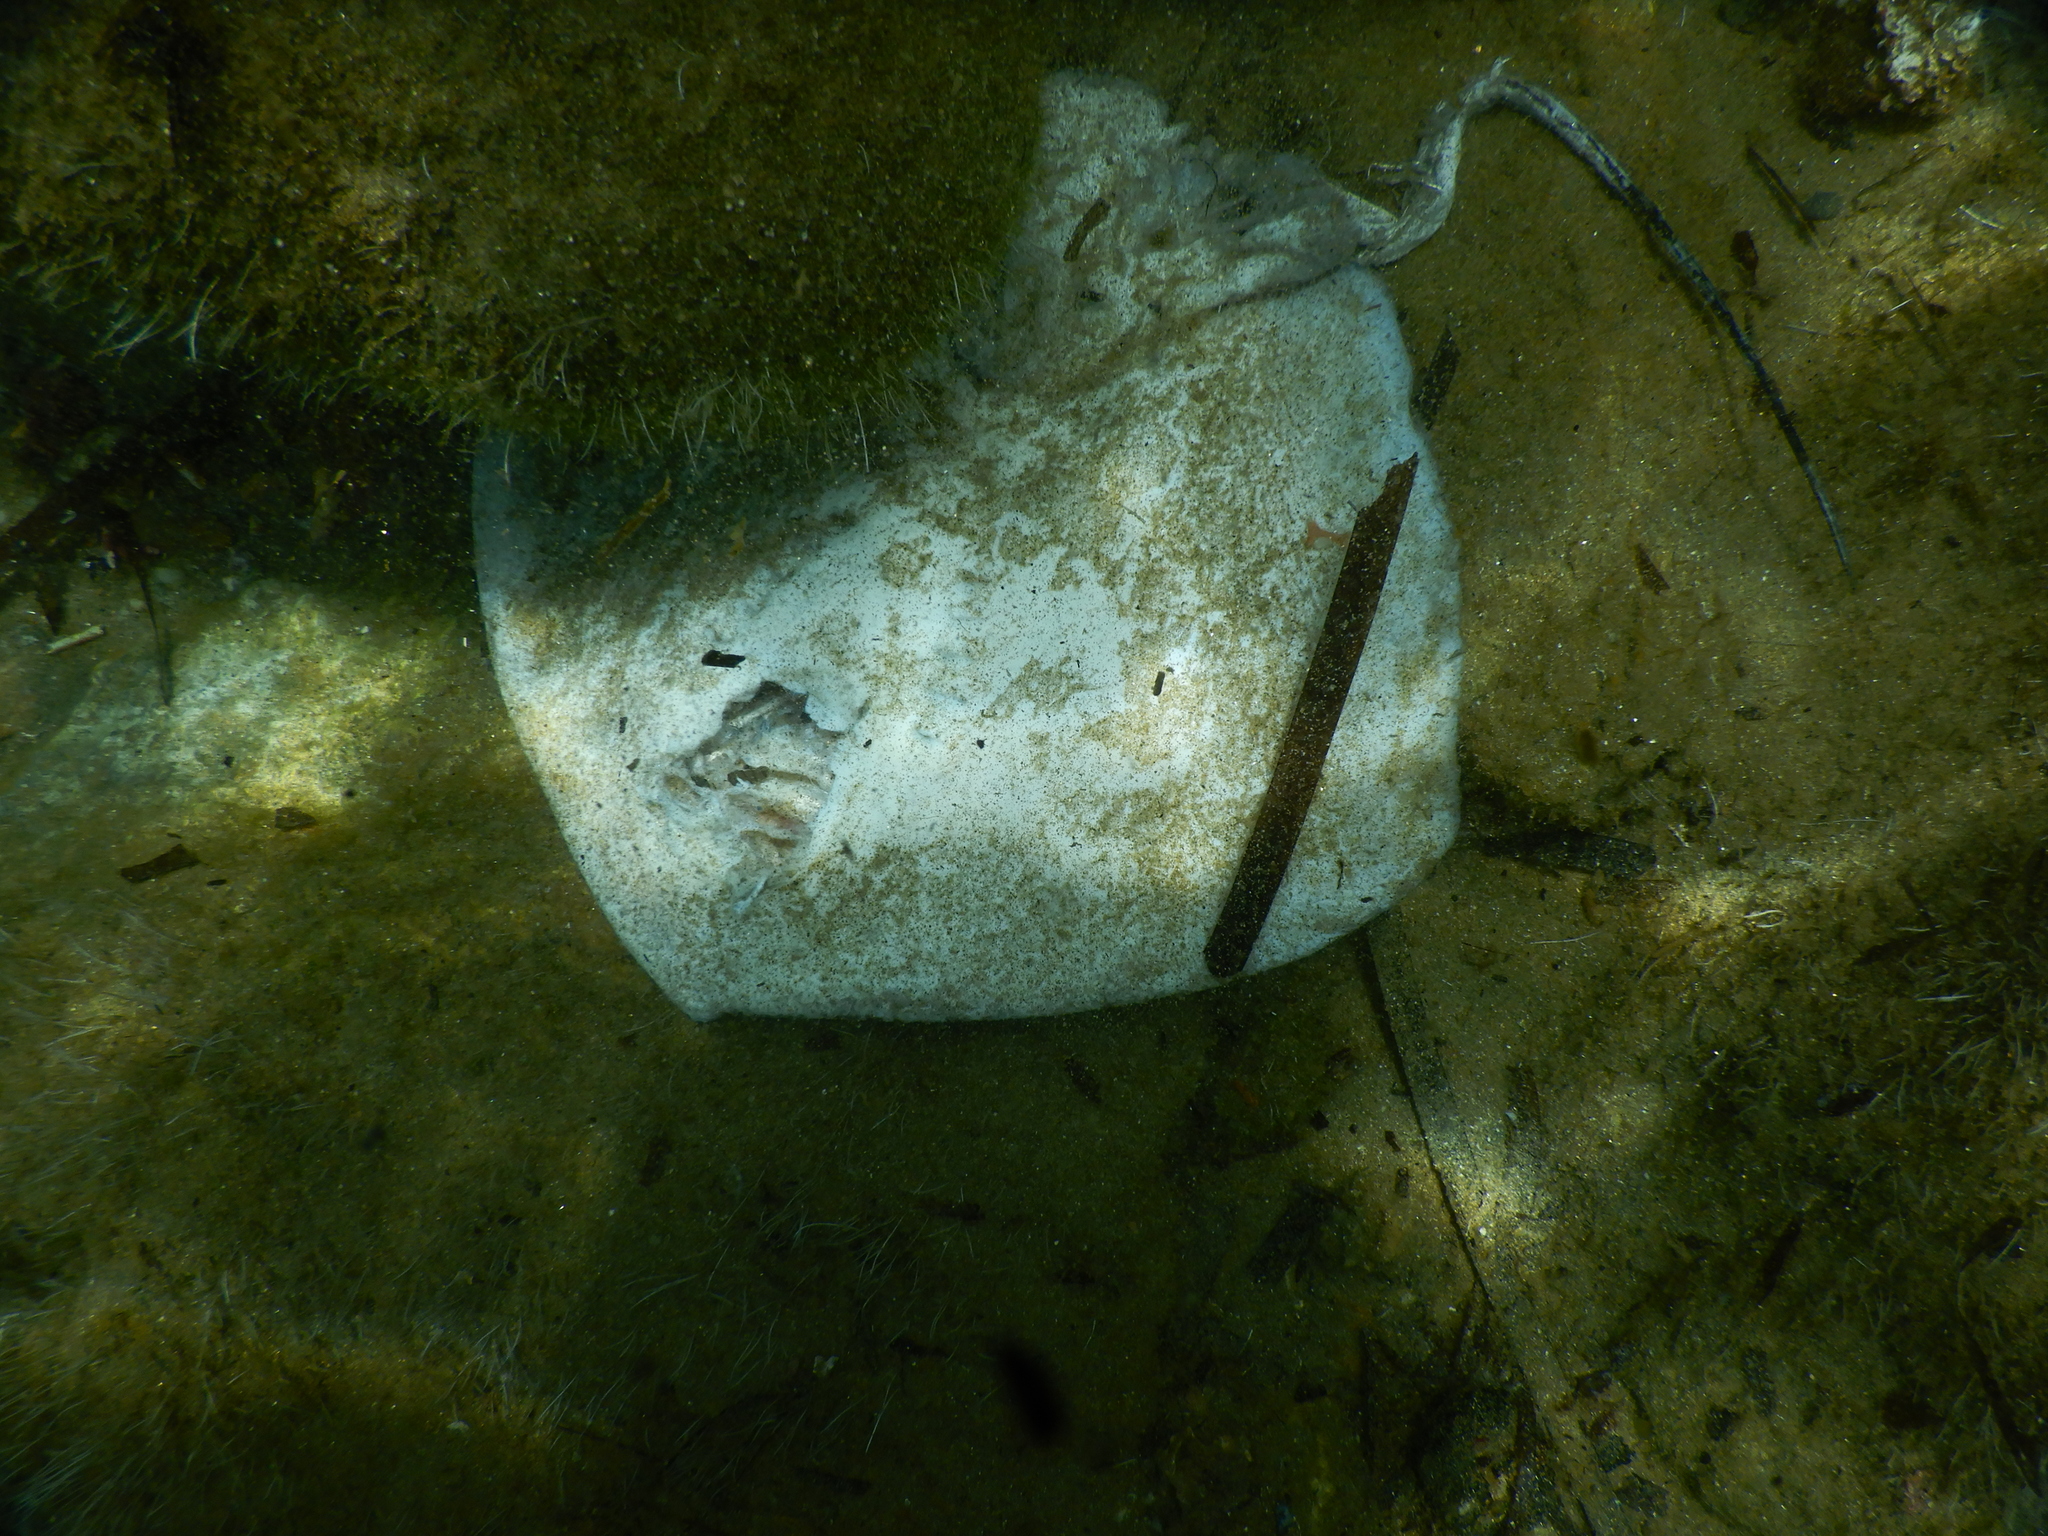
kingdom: Animalia
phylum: Chordata
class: Elasmobranchii
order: Myliobatiformes
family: Dasyatidae
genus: Dasyatis
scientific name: Dasyatis
